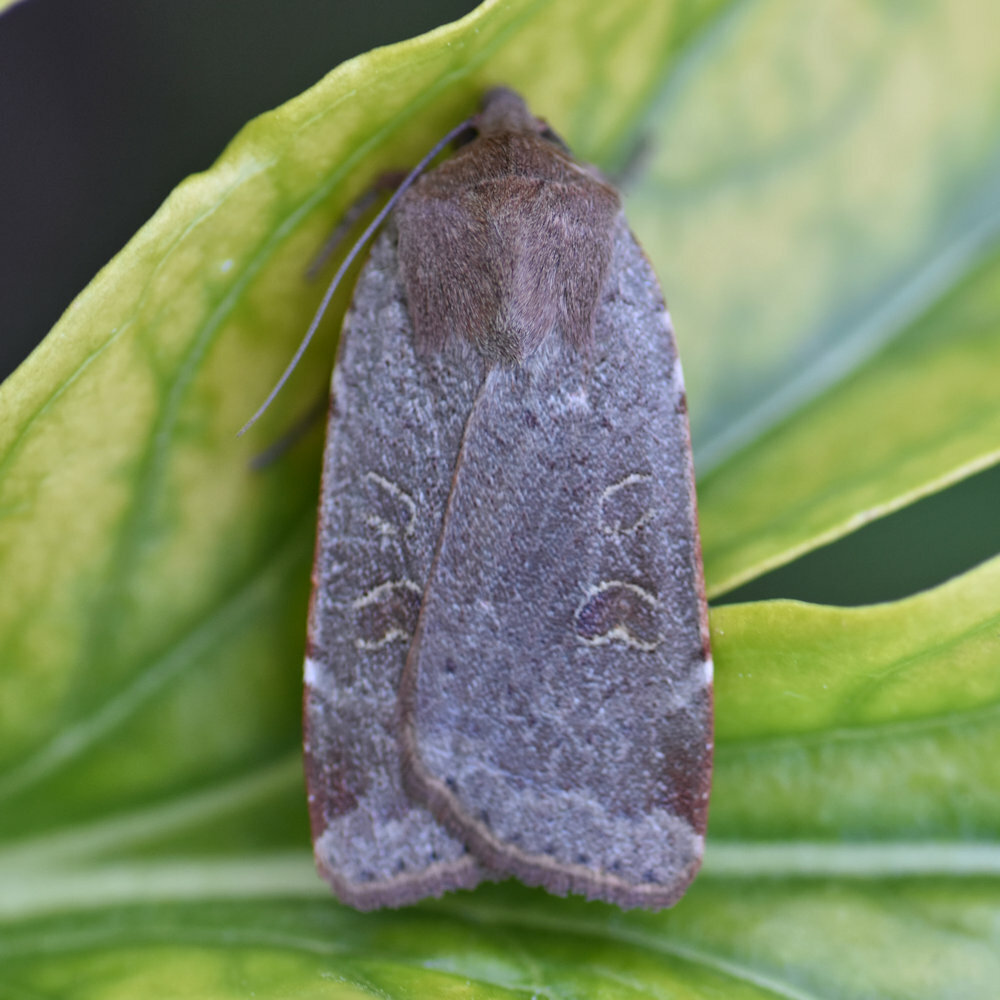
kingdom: Animalia
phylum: Arthropoda
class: Insecta
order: Lepidoptera
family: Noctuidae
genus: Noctua
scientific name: Noctua comes
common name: Lesser yellow underwing
